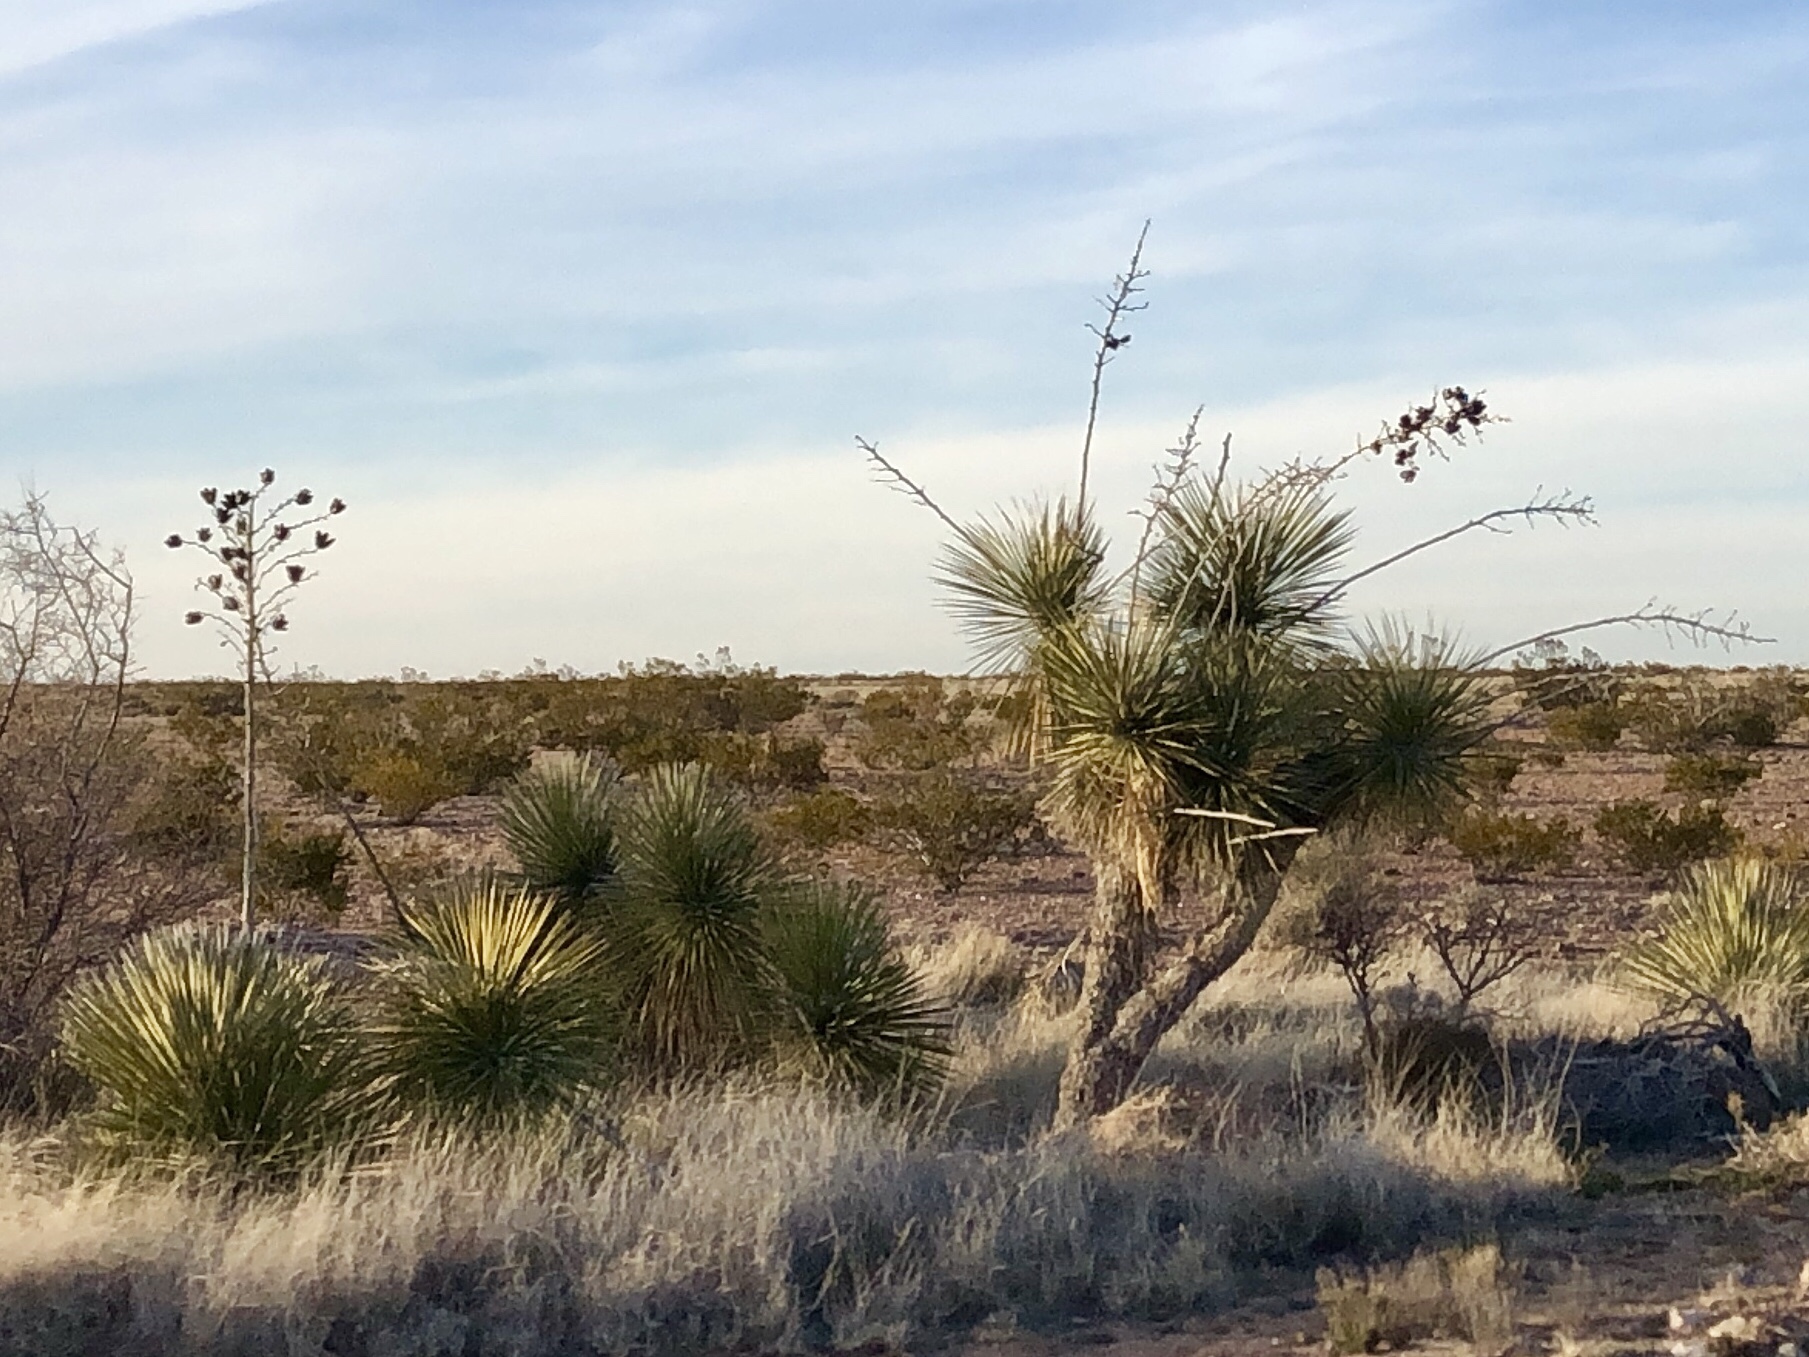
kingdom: Plantae
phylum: Tracheophyta
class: Liliopsida
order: Asparagales
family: Asparagaceae
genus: Yucca
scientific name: Yucca elata
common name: Palmella
